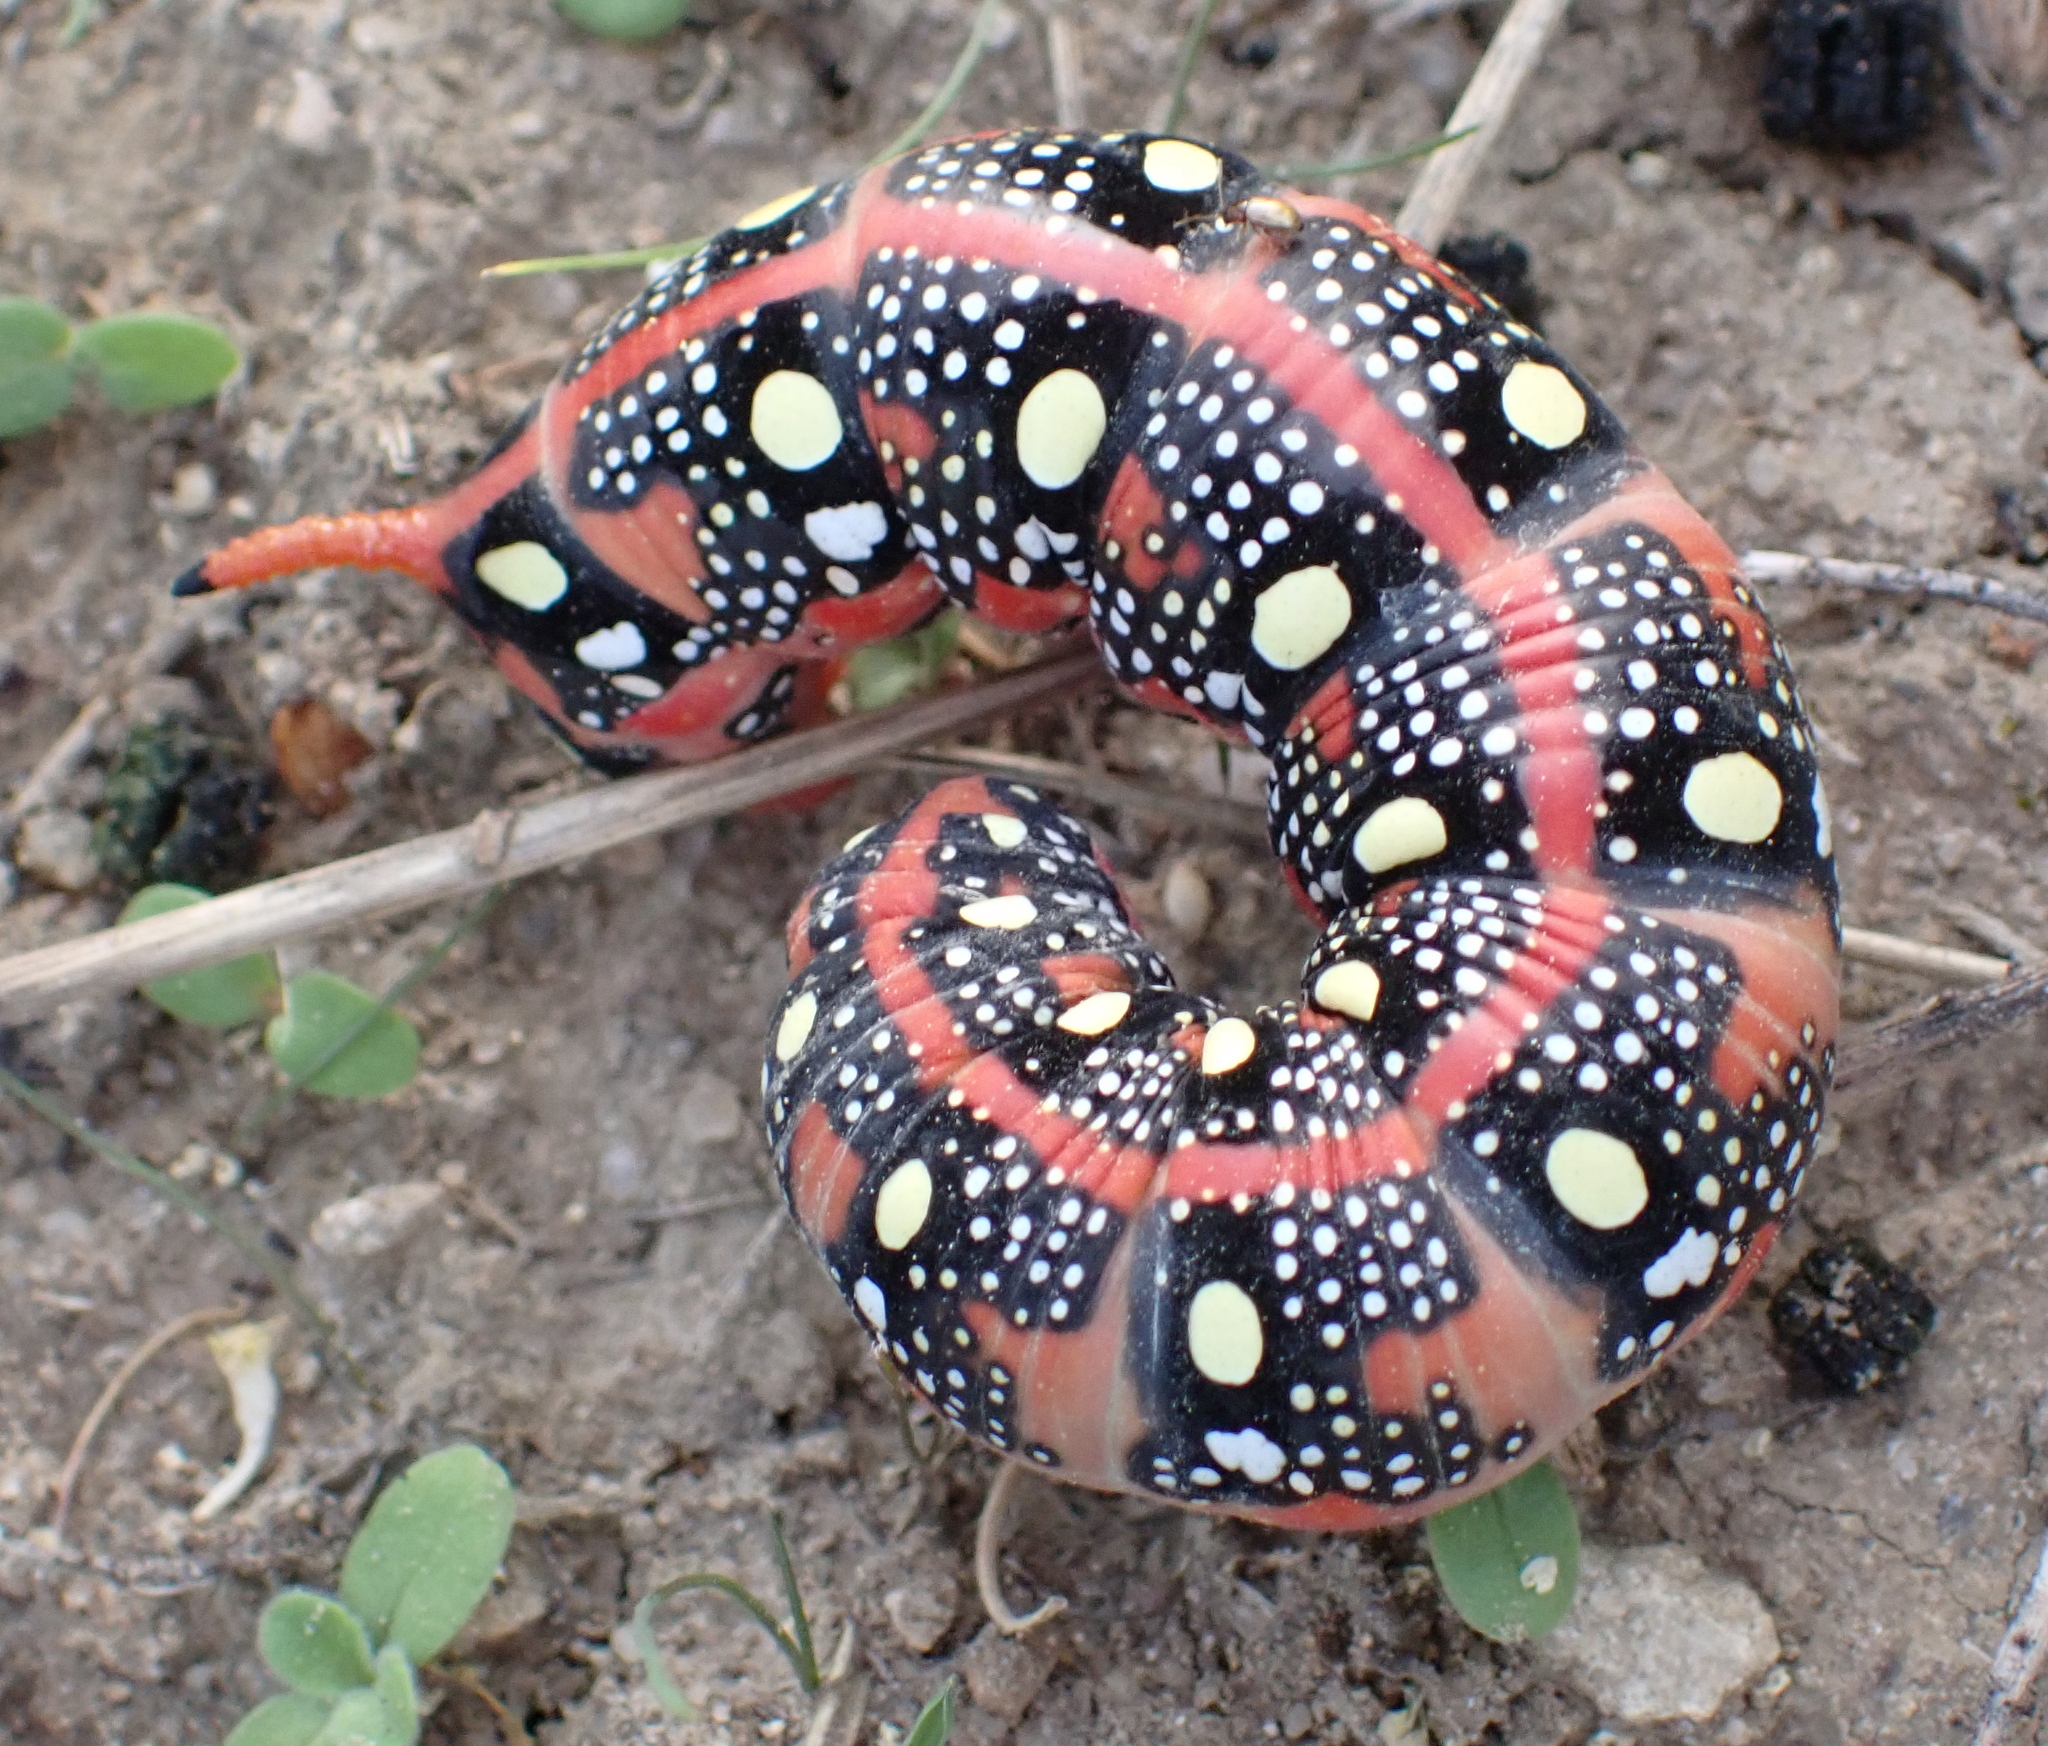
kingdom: Animalia
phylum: Arthropoda
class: Insecta
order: Lepidoptera
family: Sphingidae
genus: Hyles
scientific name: Hyles euphorbiae
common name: Spurge hawk-moth
